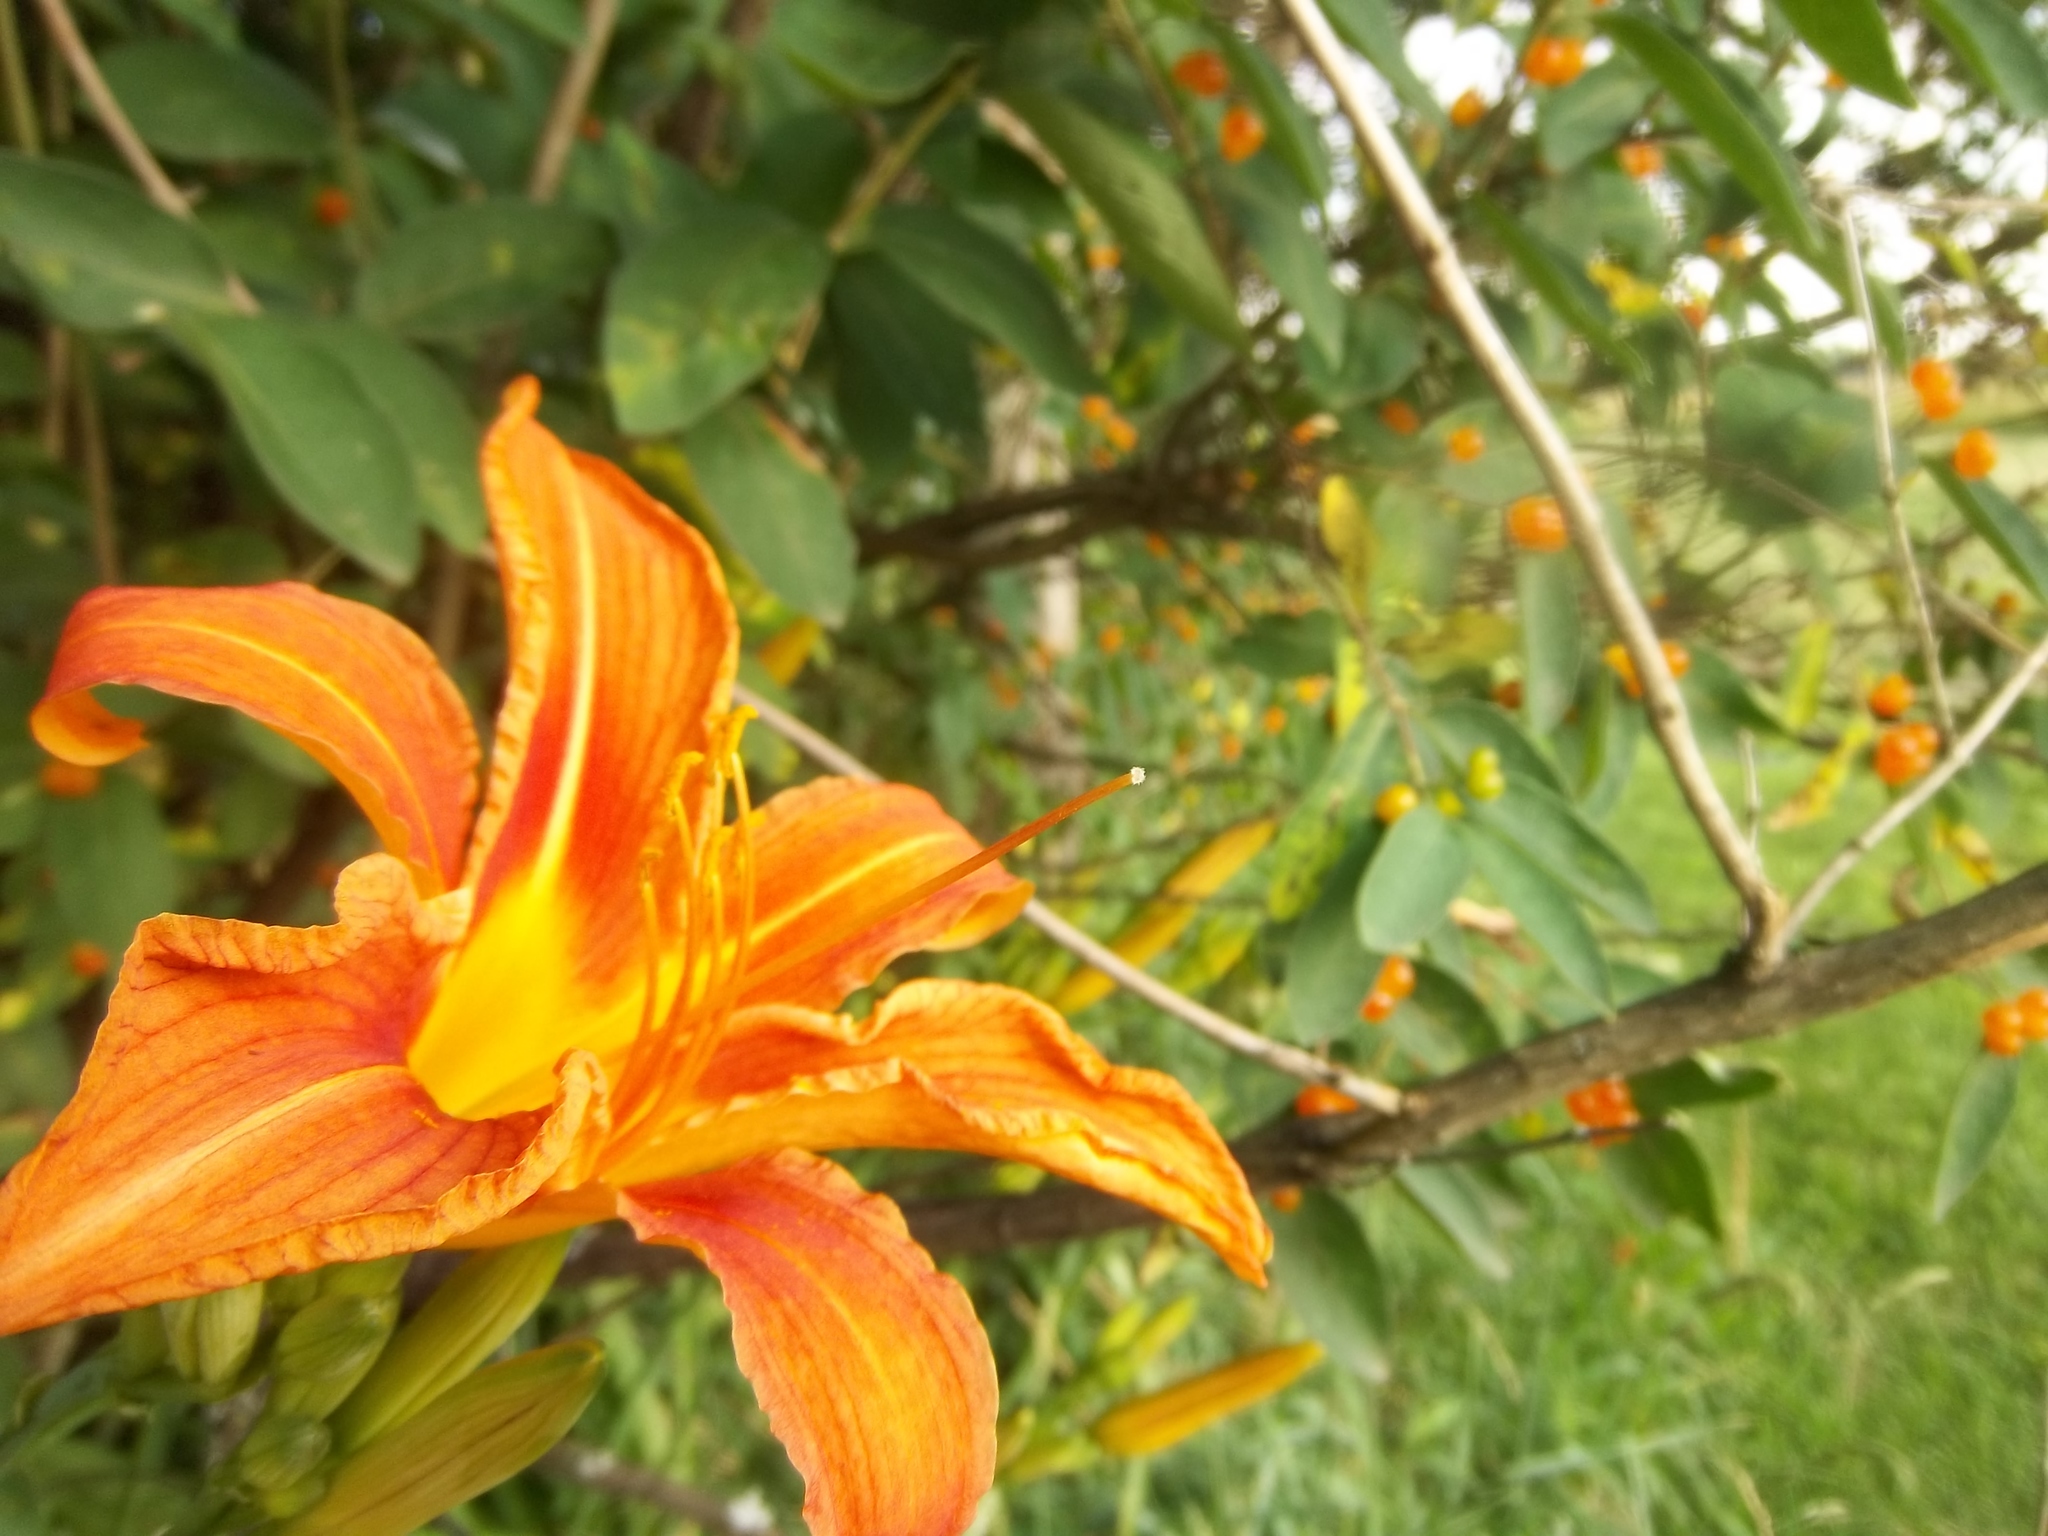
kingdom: Plantae
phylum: Tracheophyta
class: Liliopsida
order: Asparagales
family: Asphodelaceae
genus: Hemerocallis
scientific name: Hemerocallis fulva
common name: Orange day-lily
